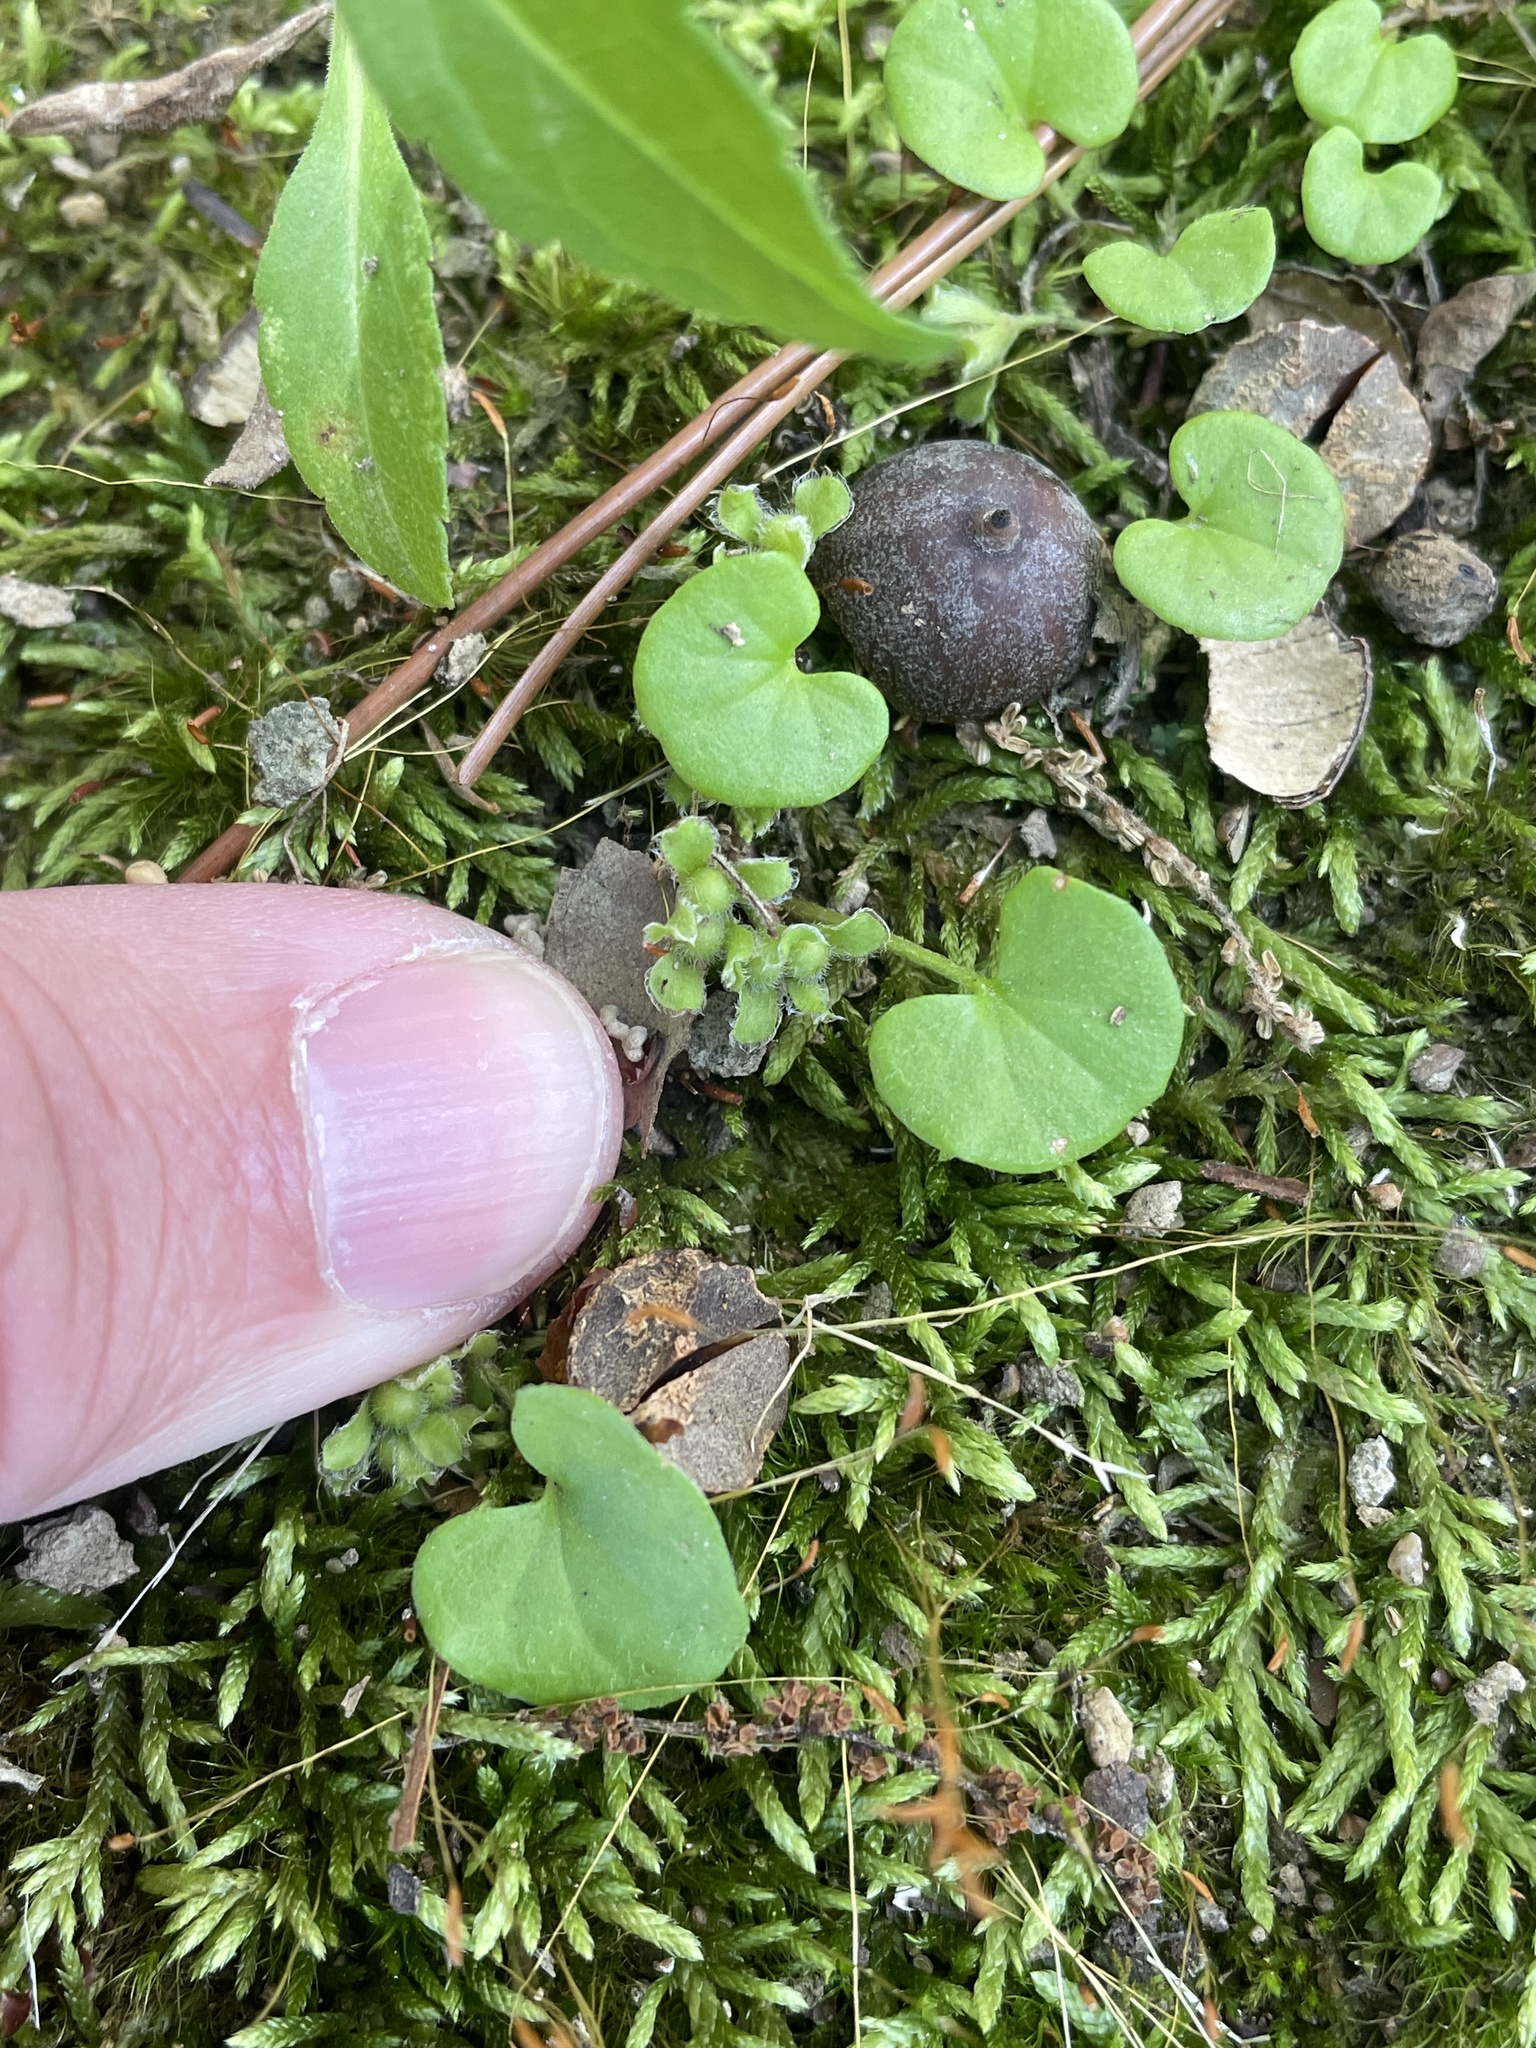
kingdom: Plantae
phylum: Tracheophyta
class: Magnoliopsida
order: Solanales
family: Convolvulaceae
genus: Dichondra
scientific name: Dichondra carolinensis
